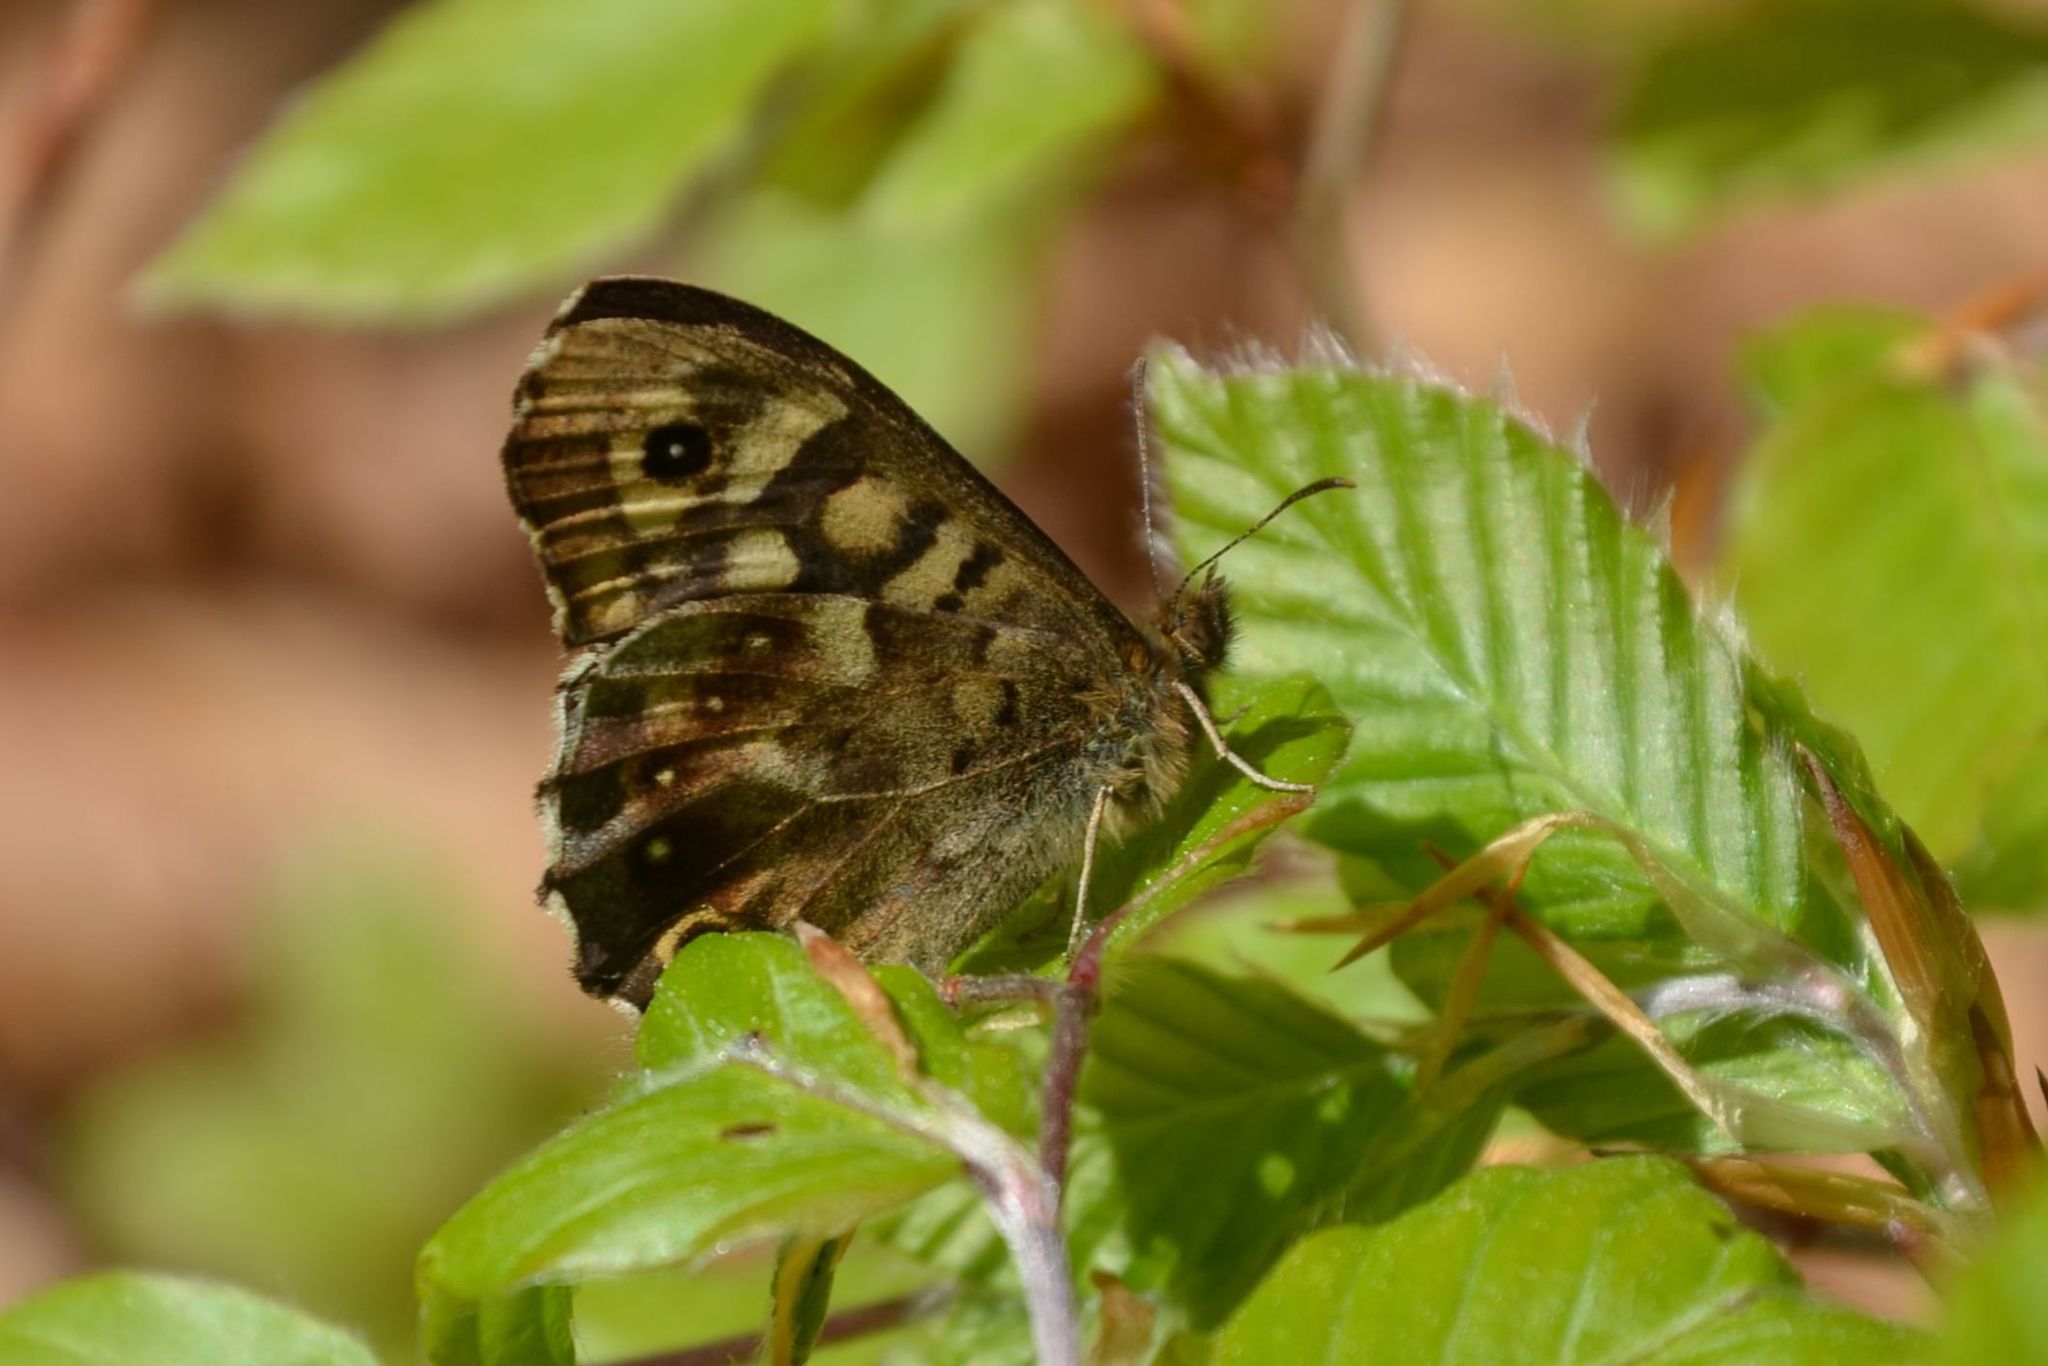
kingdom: Animalia
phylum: Arthropoda
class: Insecta
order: Lepidoptera
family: Nymphalidae
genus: Pararge
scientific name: Pararge aegeria
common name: Speckled wood
